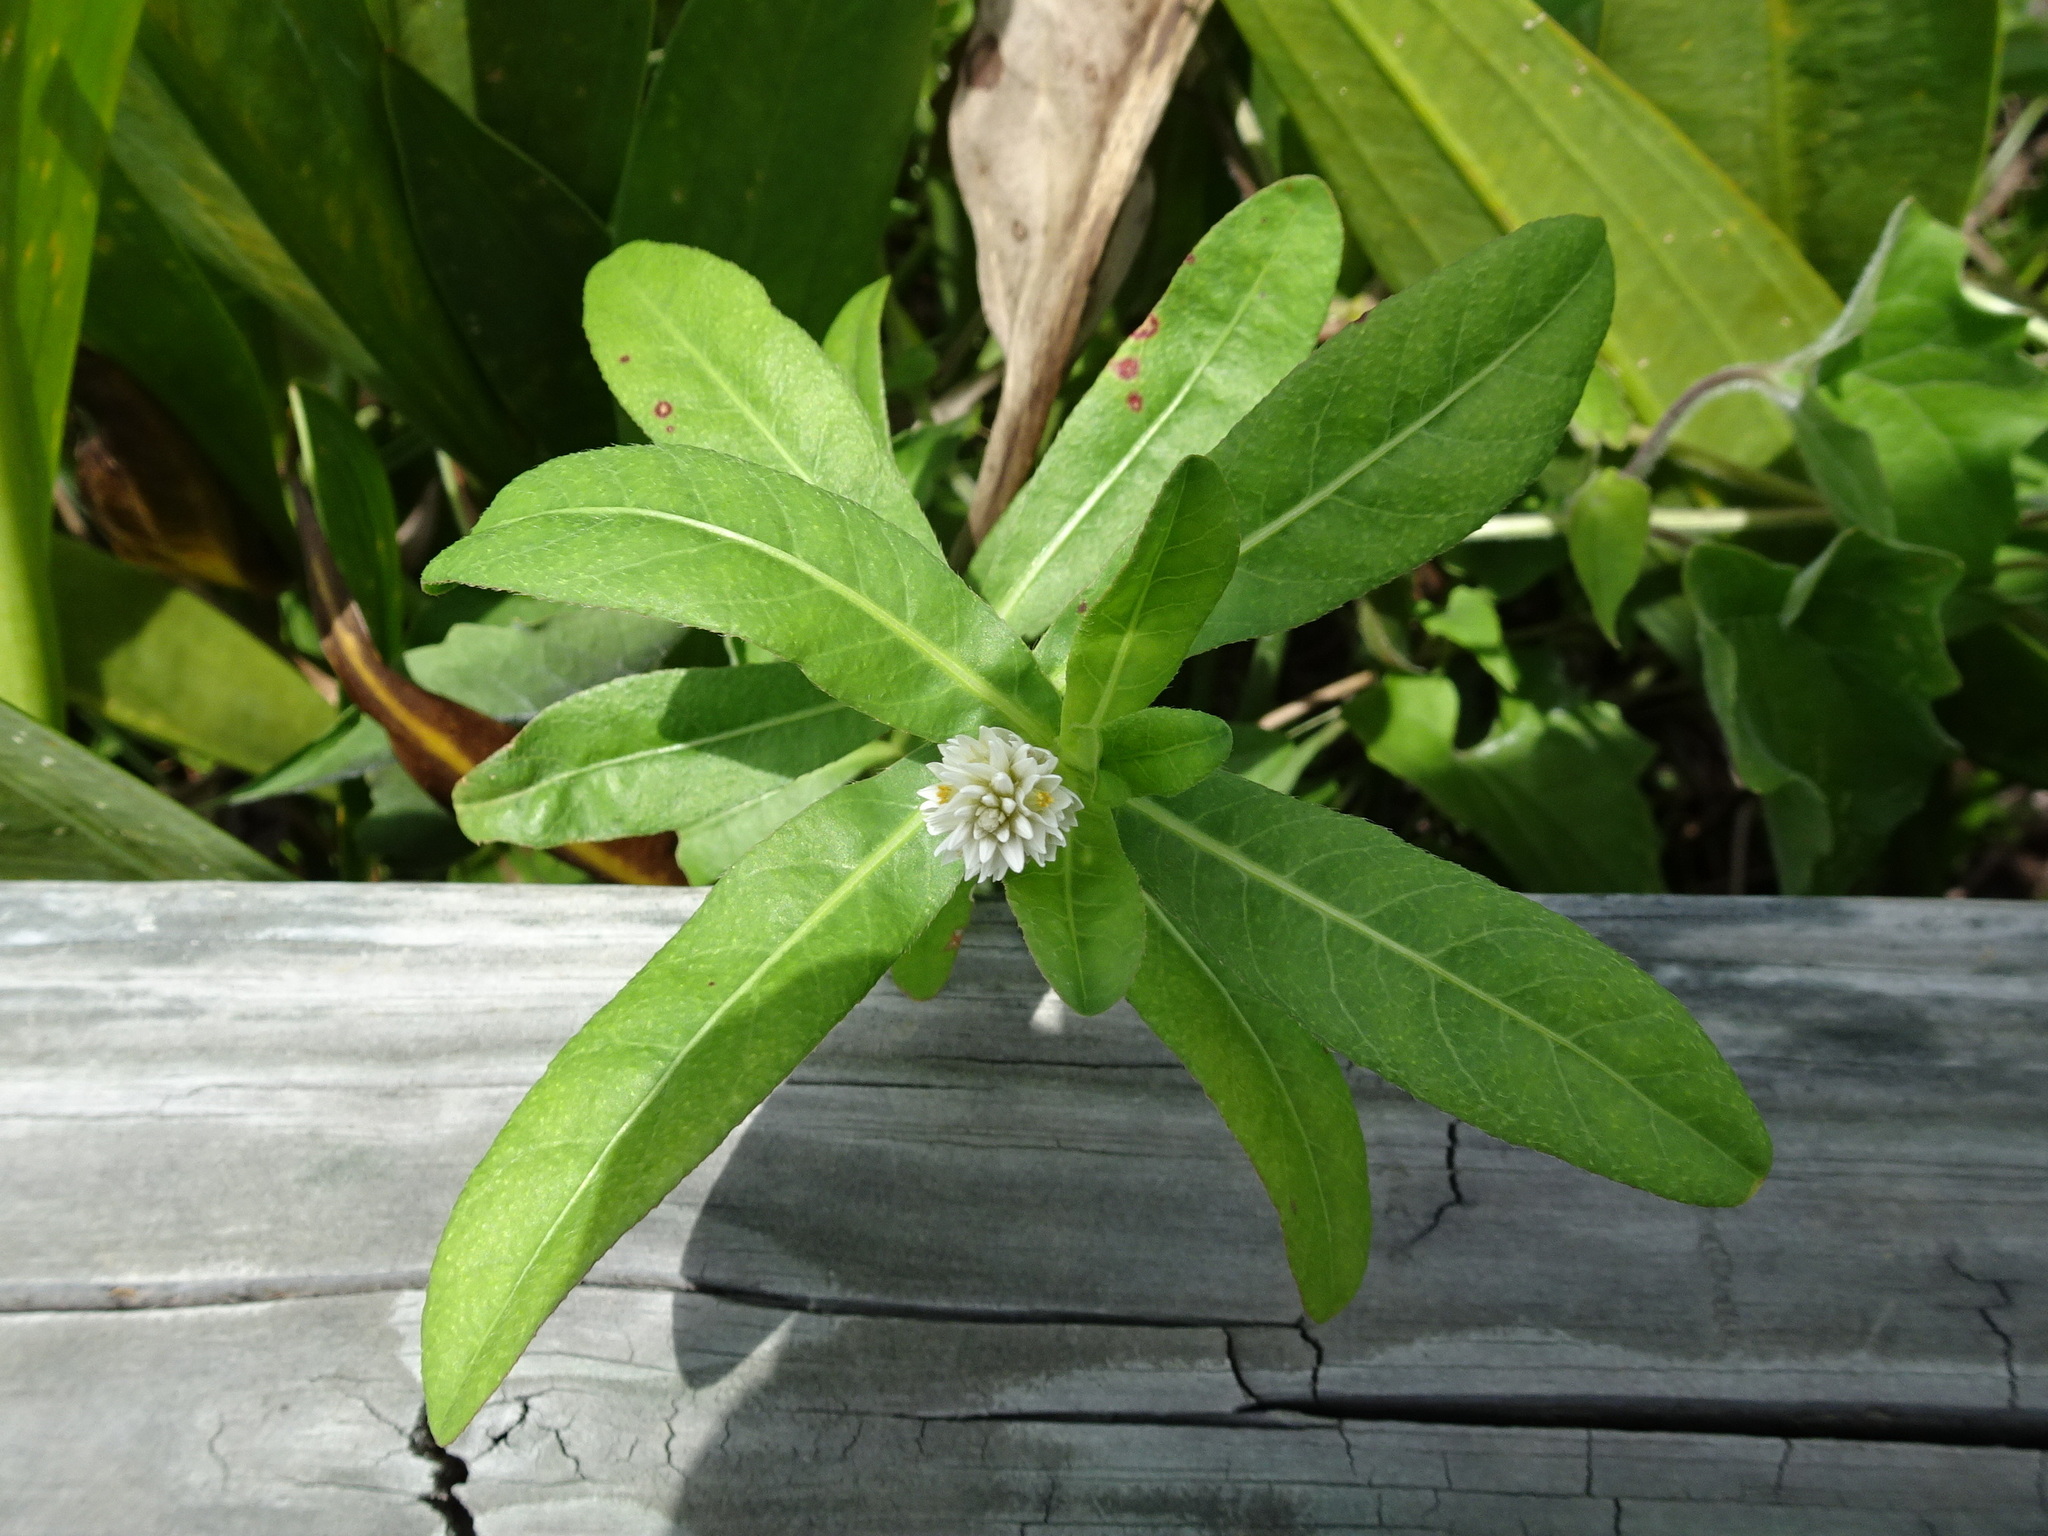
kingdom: Plantae
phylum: Tracheophyta
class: Magnoliopsida
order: Caryophyllales
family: Amaranthaceae
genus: Alternanthera
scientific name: Alternanthera philoxeroides
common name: Alligatorweed
